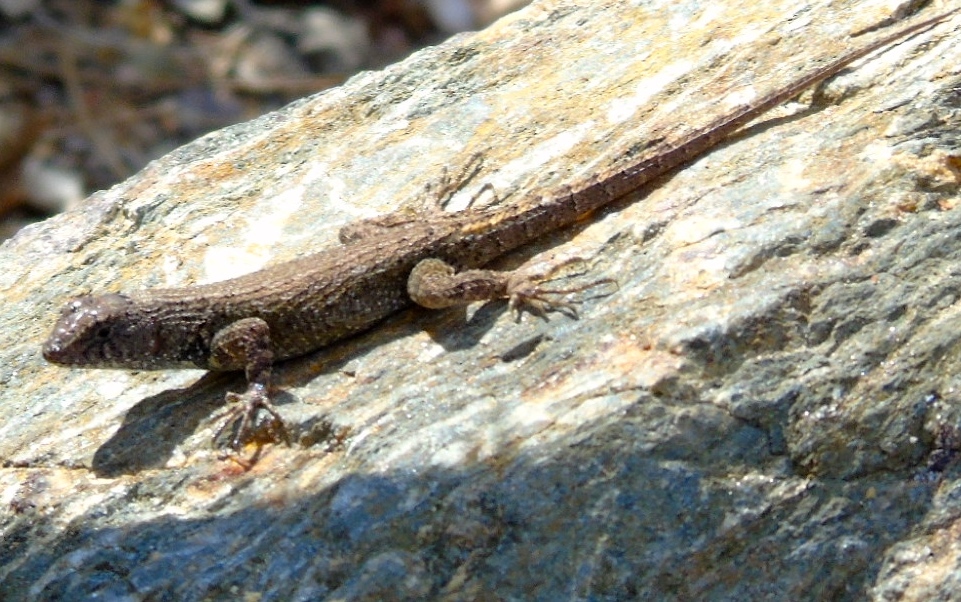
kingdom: Animalia
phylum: Chordata
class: Squamata
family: Phrynosomatidae
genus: Sceloporus
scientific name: Sceloporus nelsoni
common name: Nelson's spiny lizard
